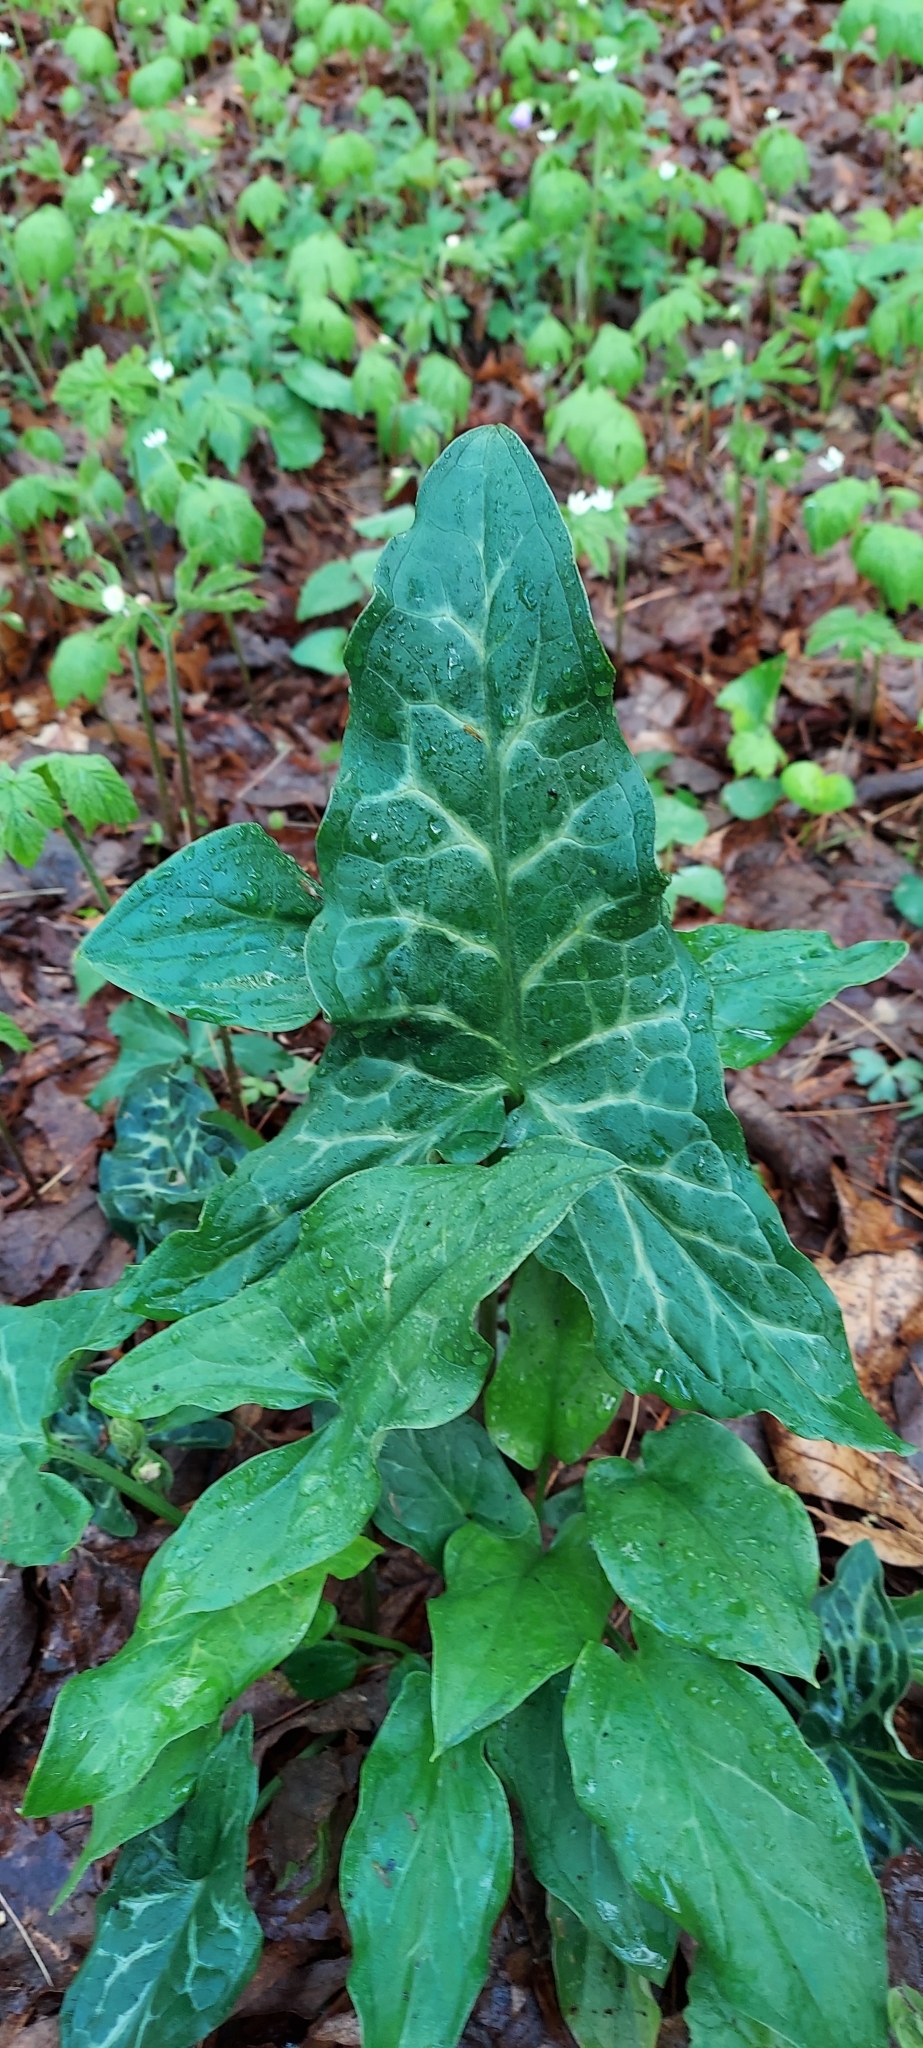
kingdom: Plantae
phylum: Tracheophyta
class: Liliopsida
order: Alismatales
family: Araceae
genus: Arum
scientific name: Arum italicum
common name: Italian lords-and-ladies
